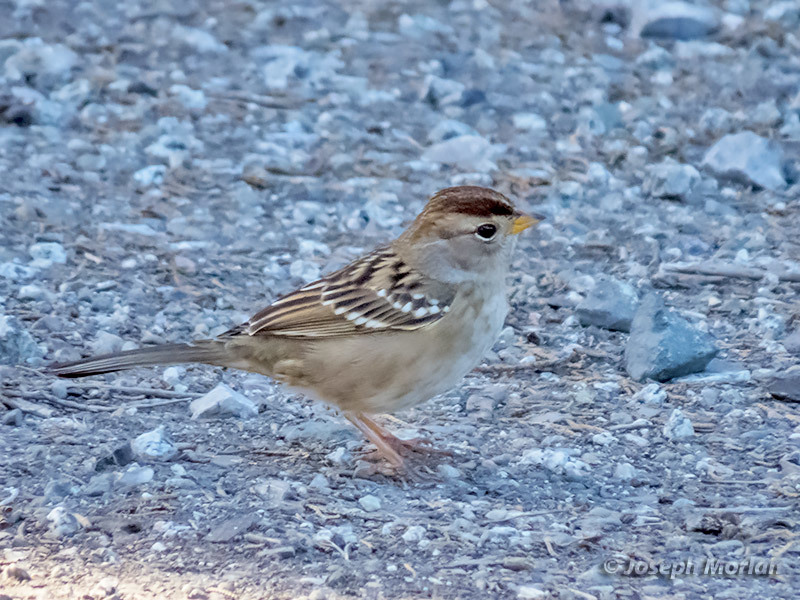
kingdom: Animalia
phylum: Chordata
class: Aves
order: Passeriformes
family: Passerellidae
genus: Zonotrichia
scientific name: Zonotrichia leucophrys
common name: White-crowned sparrow
